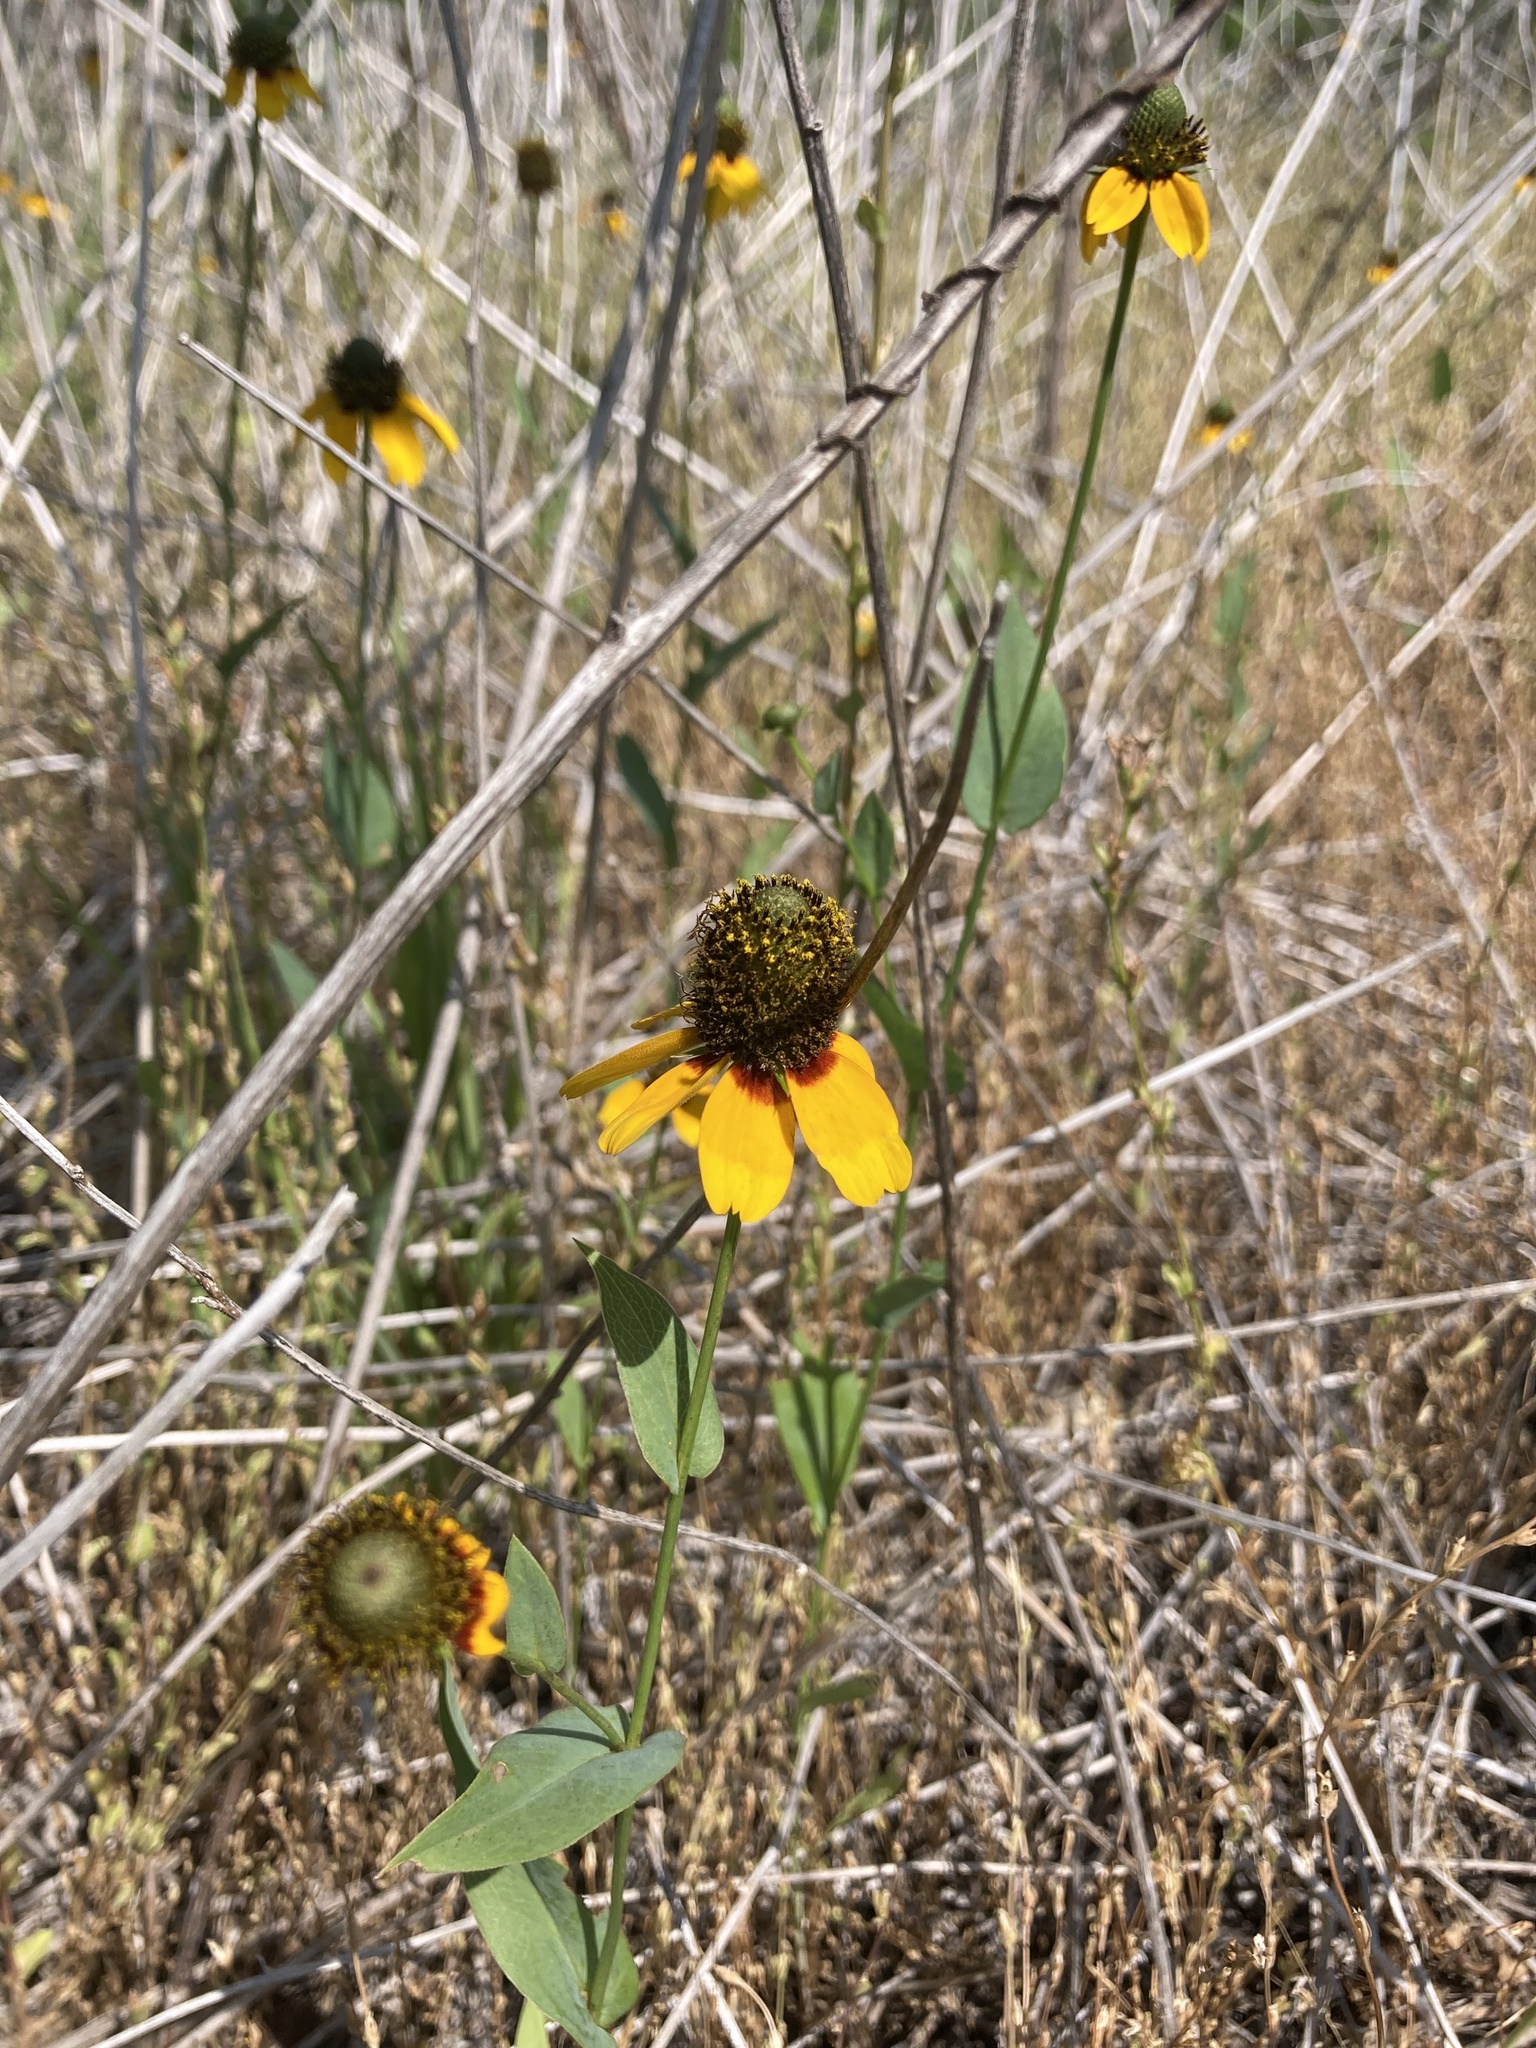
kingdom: Plantae
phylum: Tracheophyta
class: Magnoliopsida
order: Asterales
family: Asteraceae
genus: Rudbeckia
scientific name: Rudbeckia amplexicaulis
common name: Clasping-leaf coneflower
